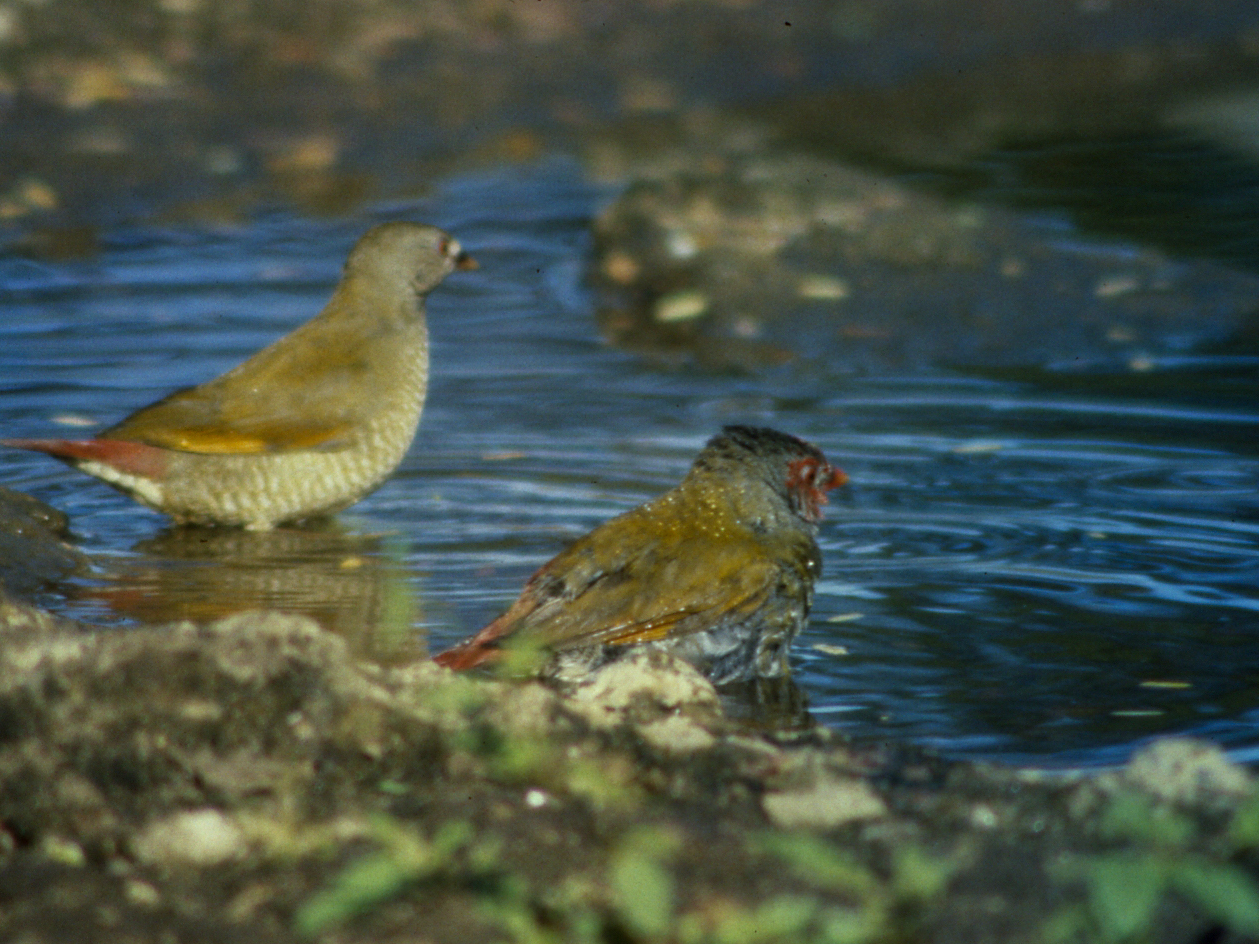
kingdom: Animalia
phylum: Chordata
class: Aves
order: Passeriformes
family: Estrildidae
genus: Pytilia
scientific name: Pytilia afra
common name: Orange-winged pytilia
